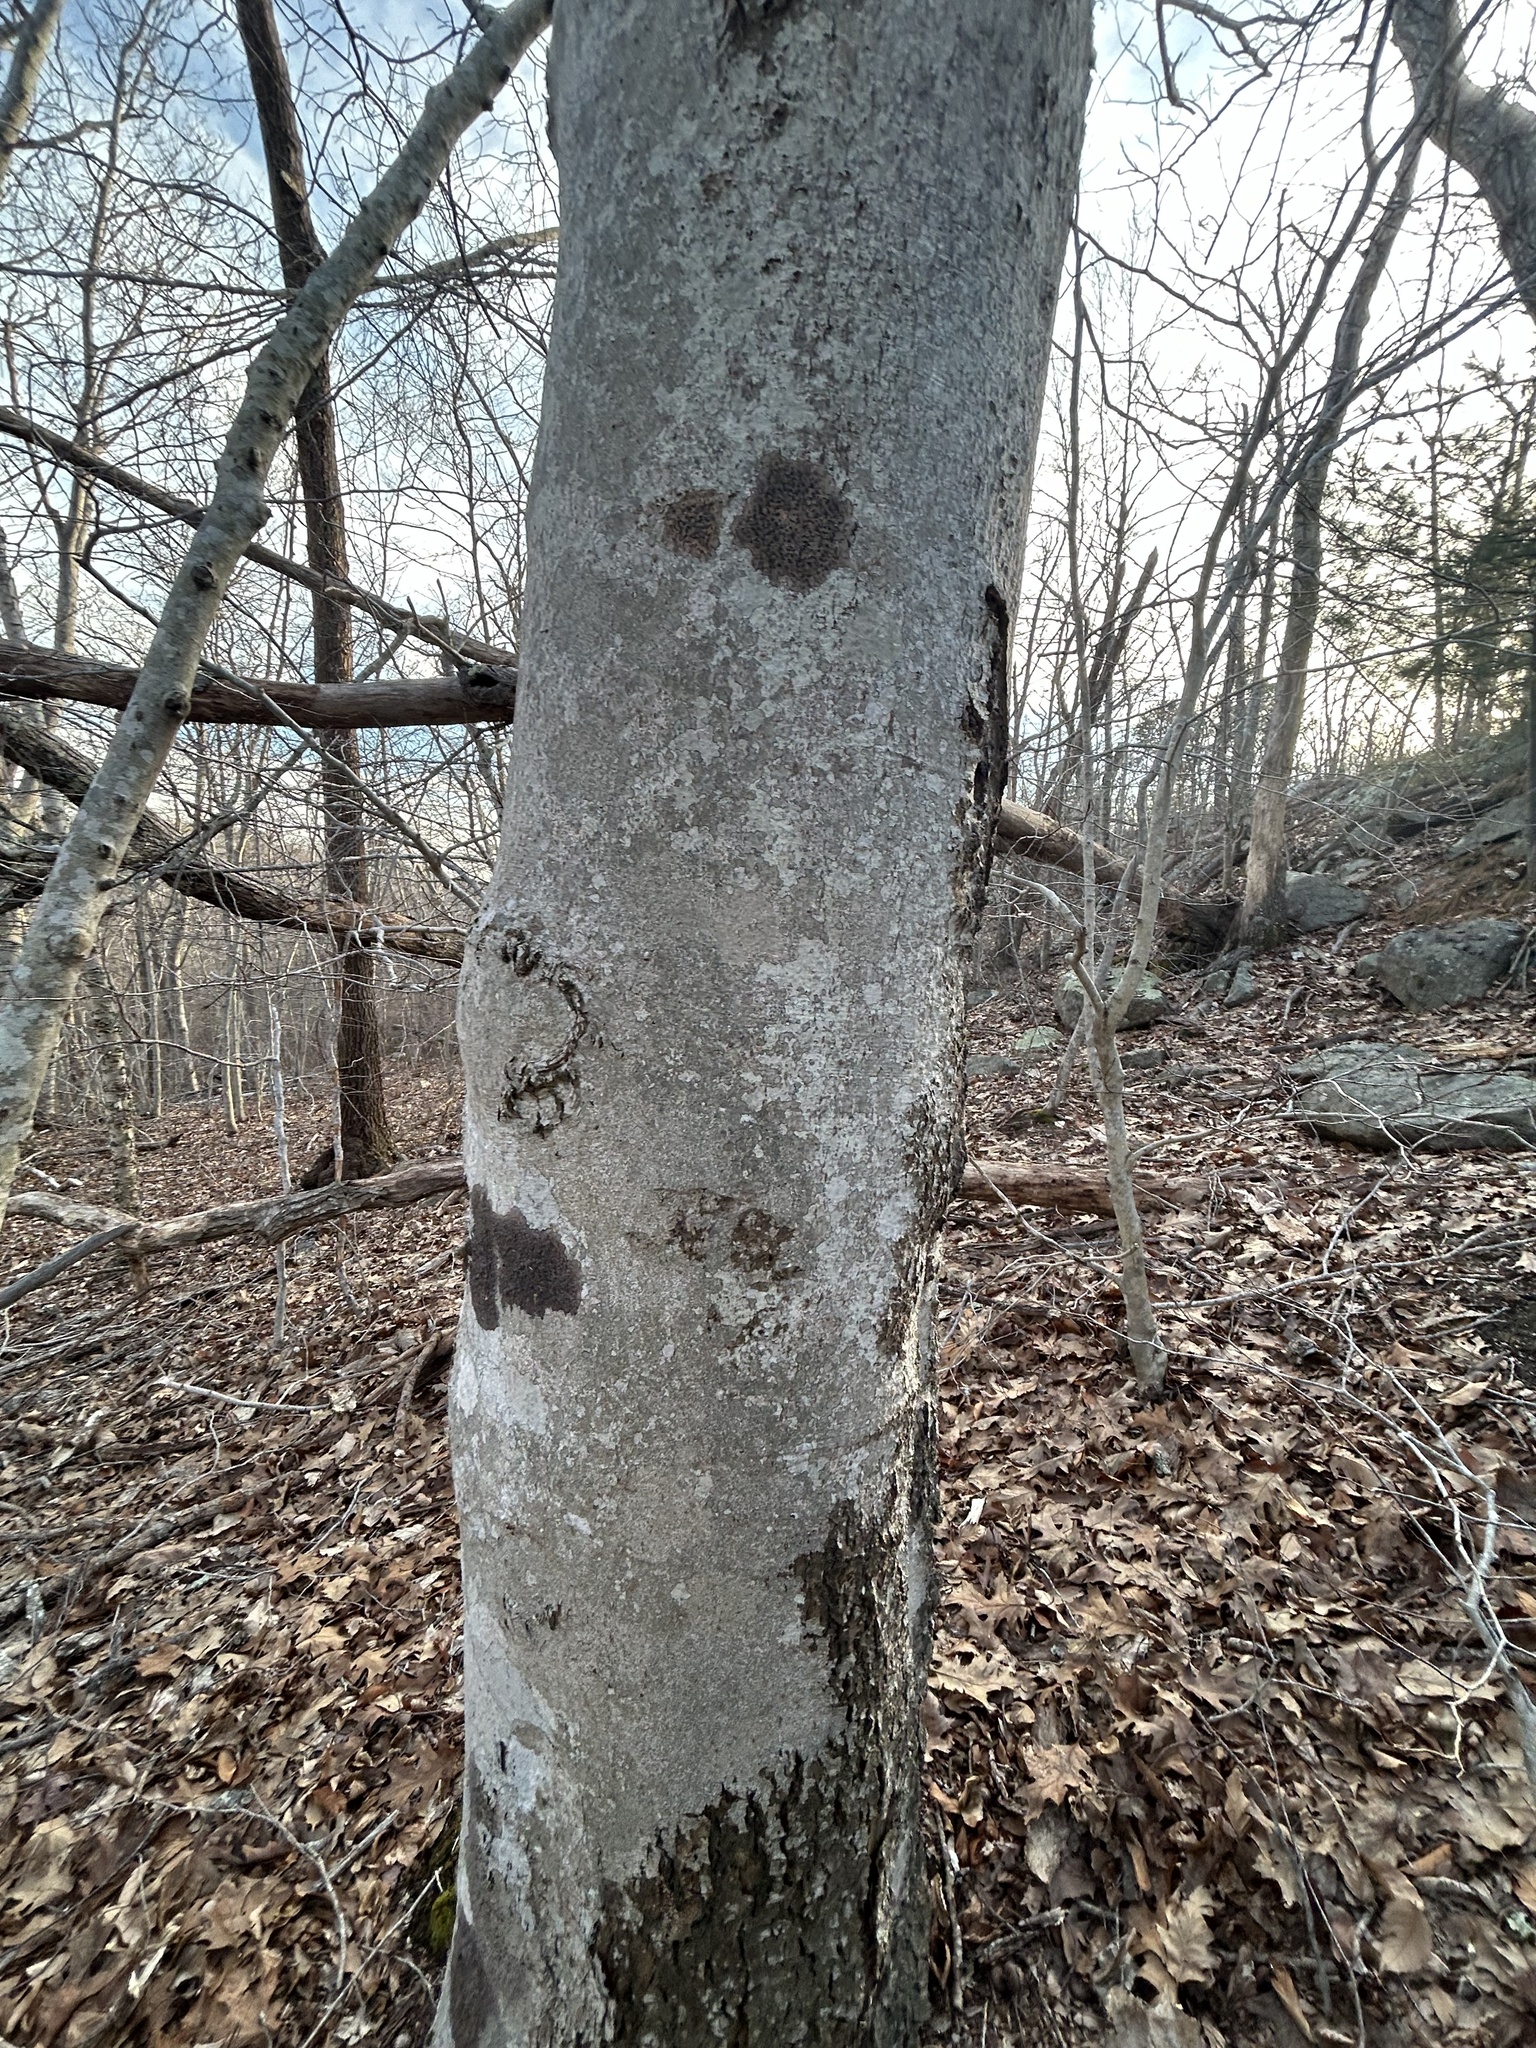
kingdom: Plantae
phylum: Tracheophyta
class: Magnoliopsida
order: Fagales
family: Fagaceae
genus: Fagus
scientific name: Fagus grandifolia
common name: American beech
